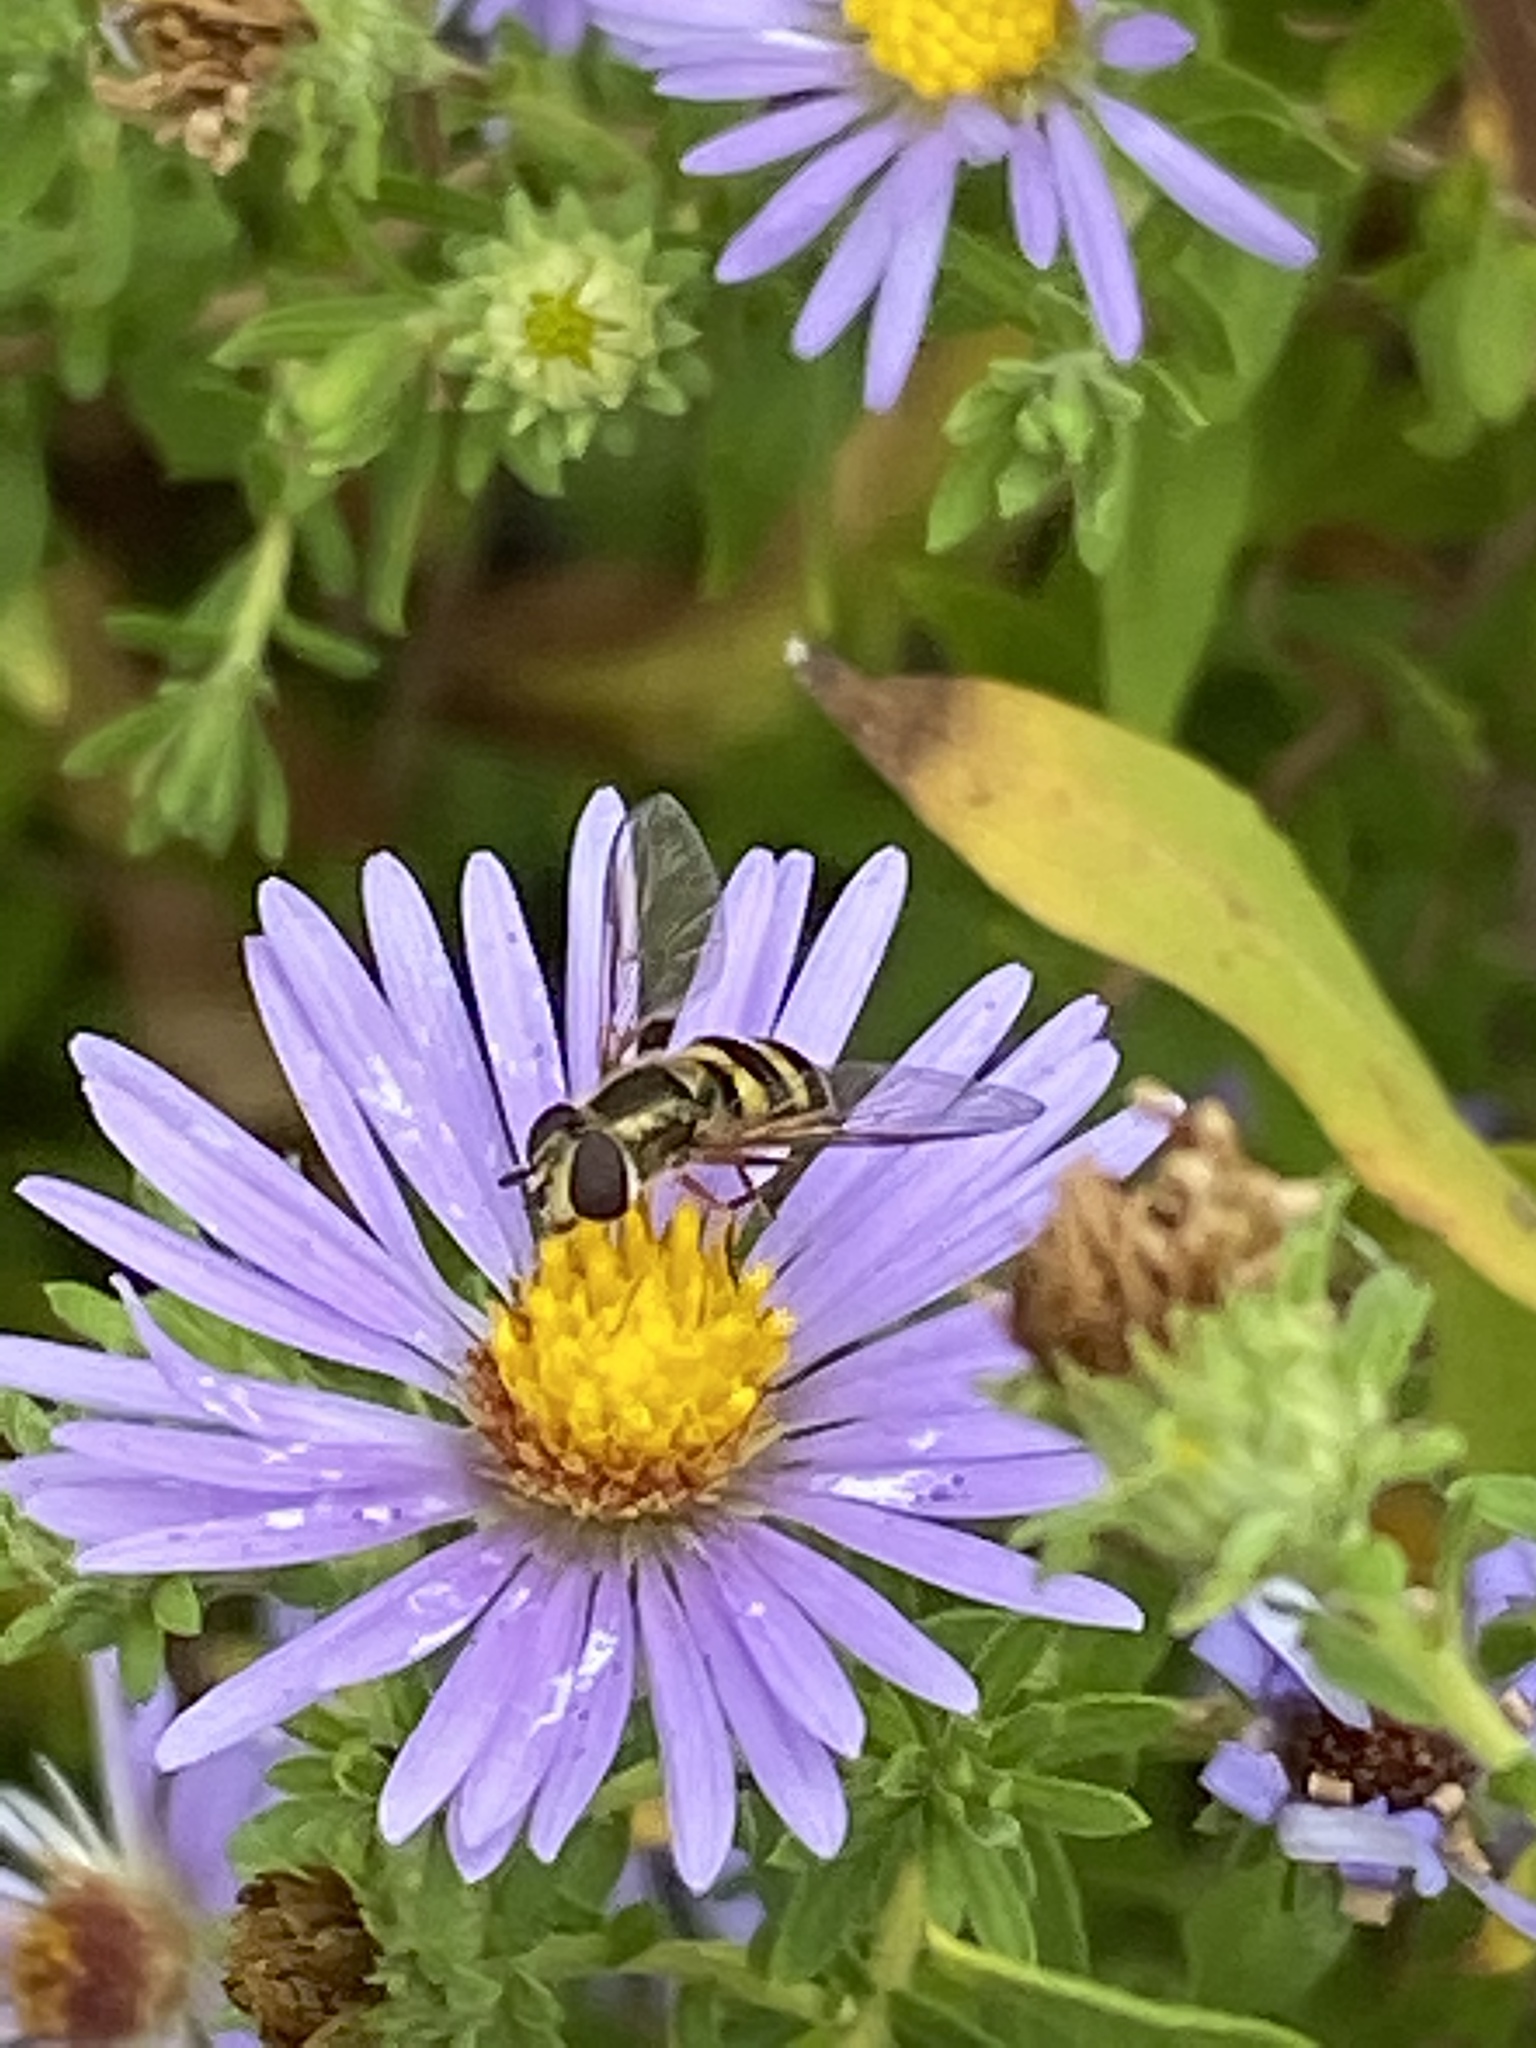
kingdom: Animalia
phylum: Arthropoda
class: Insecta
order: Diptera
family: Syrphidae
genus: Eupeodes
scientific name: Eupeodes
